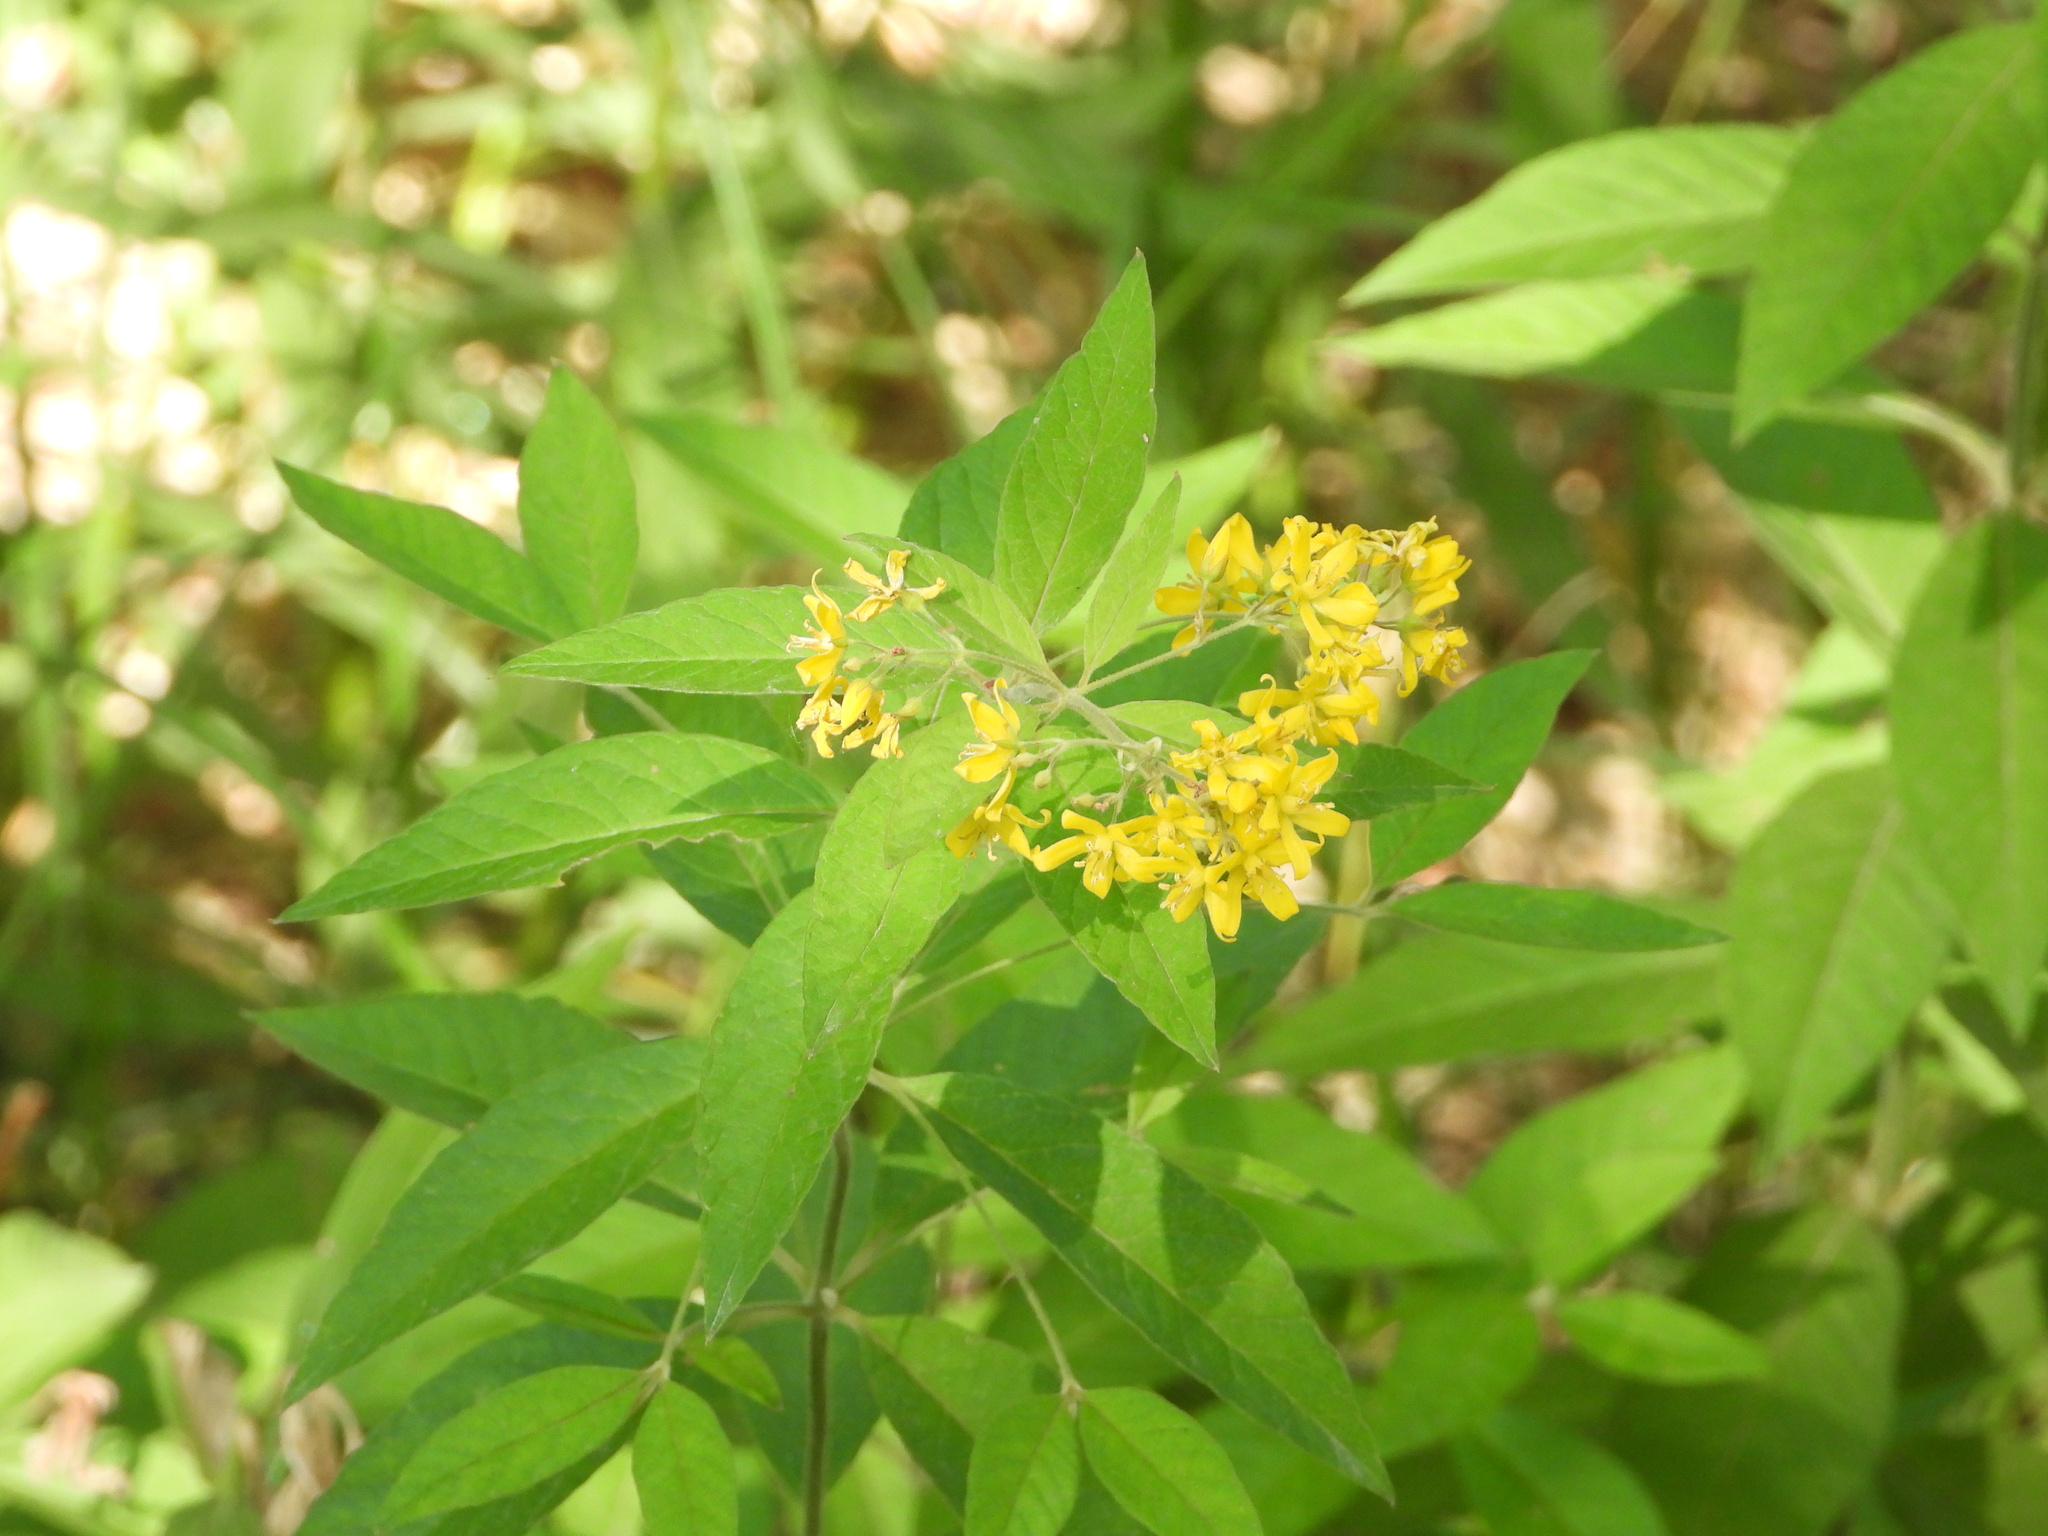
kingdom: Plantae
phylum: Tracheophyta
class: Magnoliopsida
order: Ericales
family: Primulaceae
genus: Lysimachia
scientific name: Lysimachia vulgaris
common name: Yellow loosestrife
